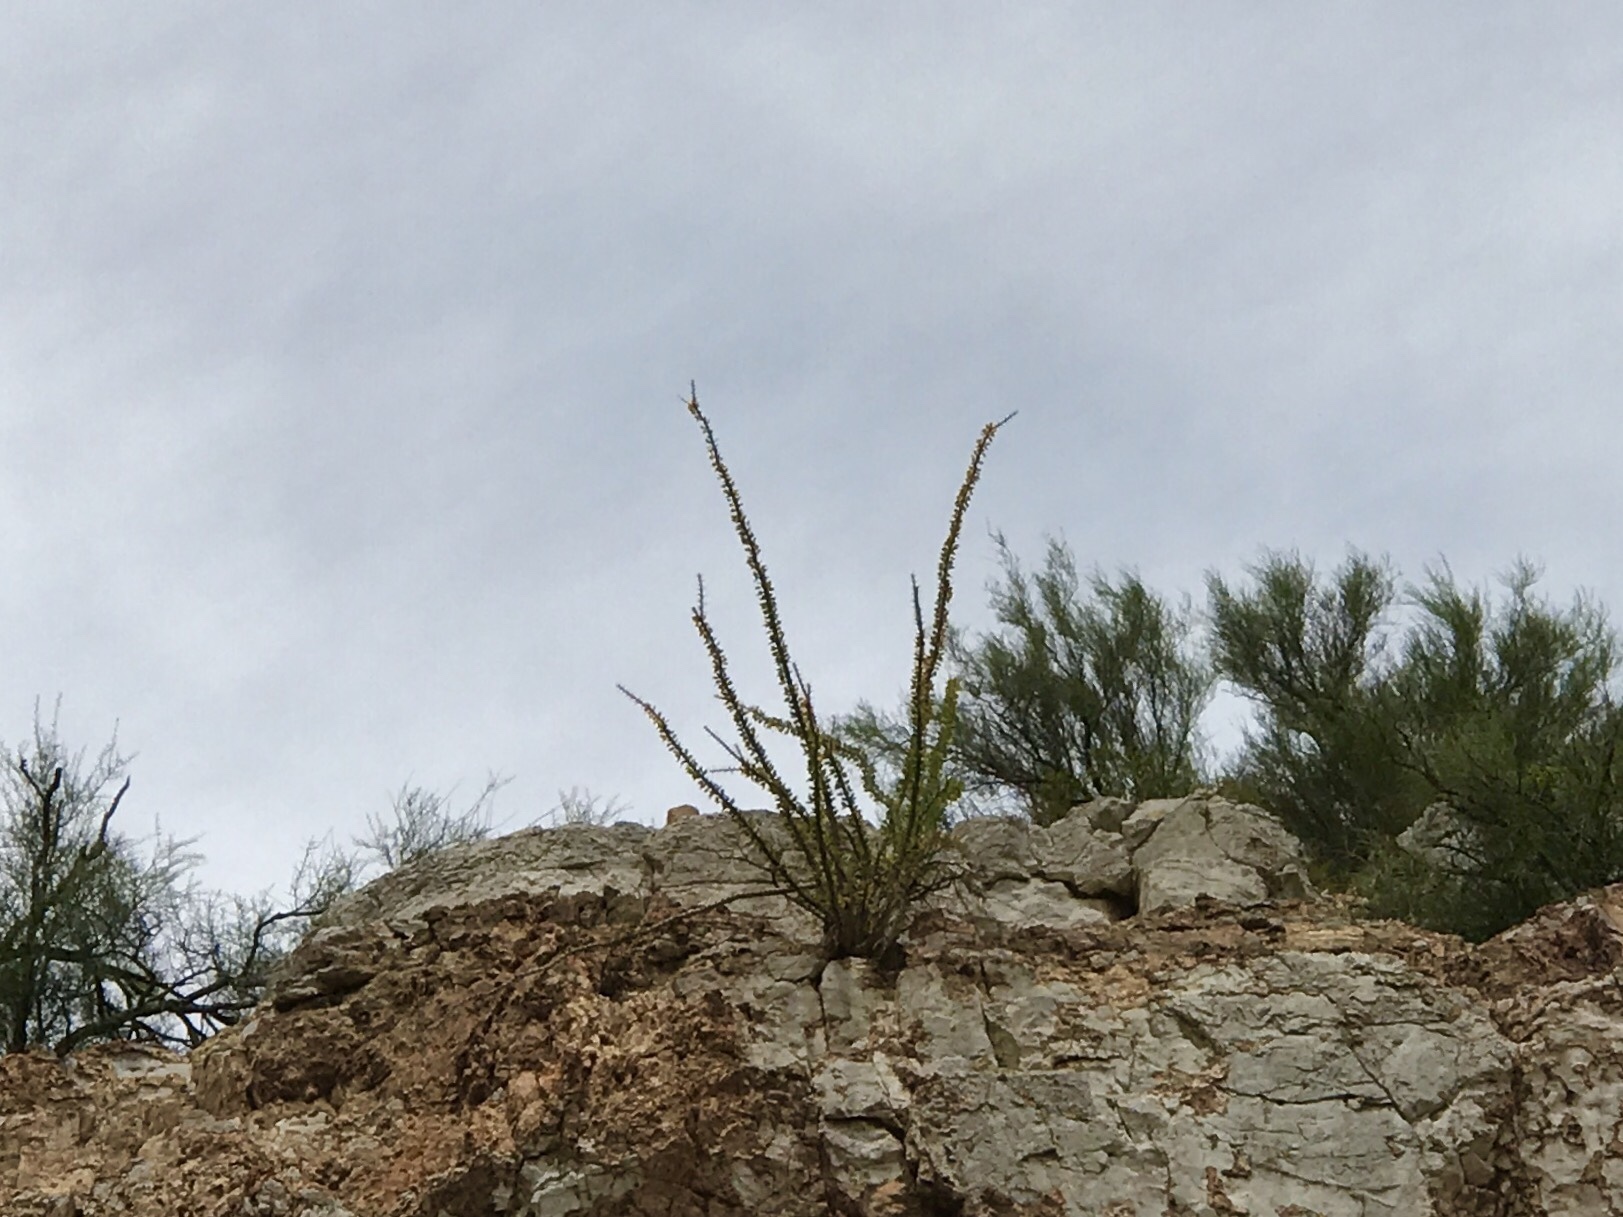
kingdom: Plantae
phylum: Tracheophyta
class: Magnoliopsida
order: Ericales
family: Fouquieriaceae
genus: Fouquieria
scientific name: Fouquieria splendens
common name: Vine-cactus
